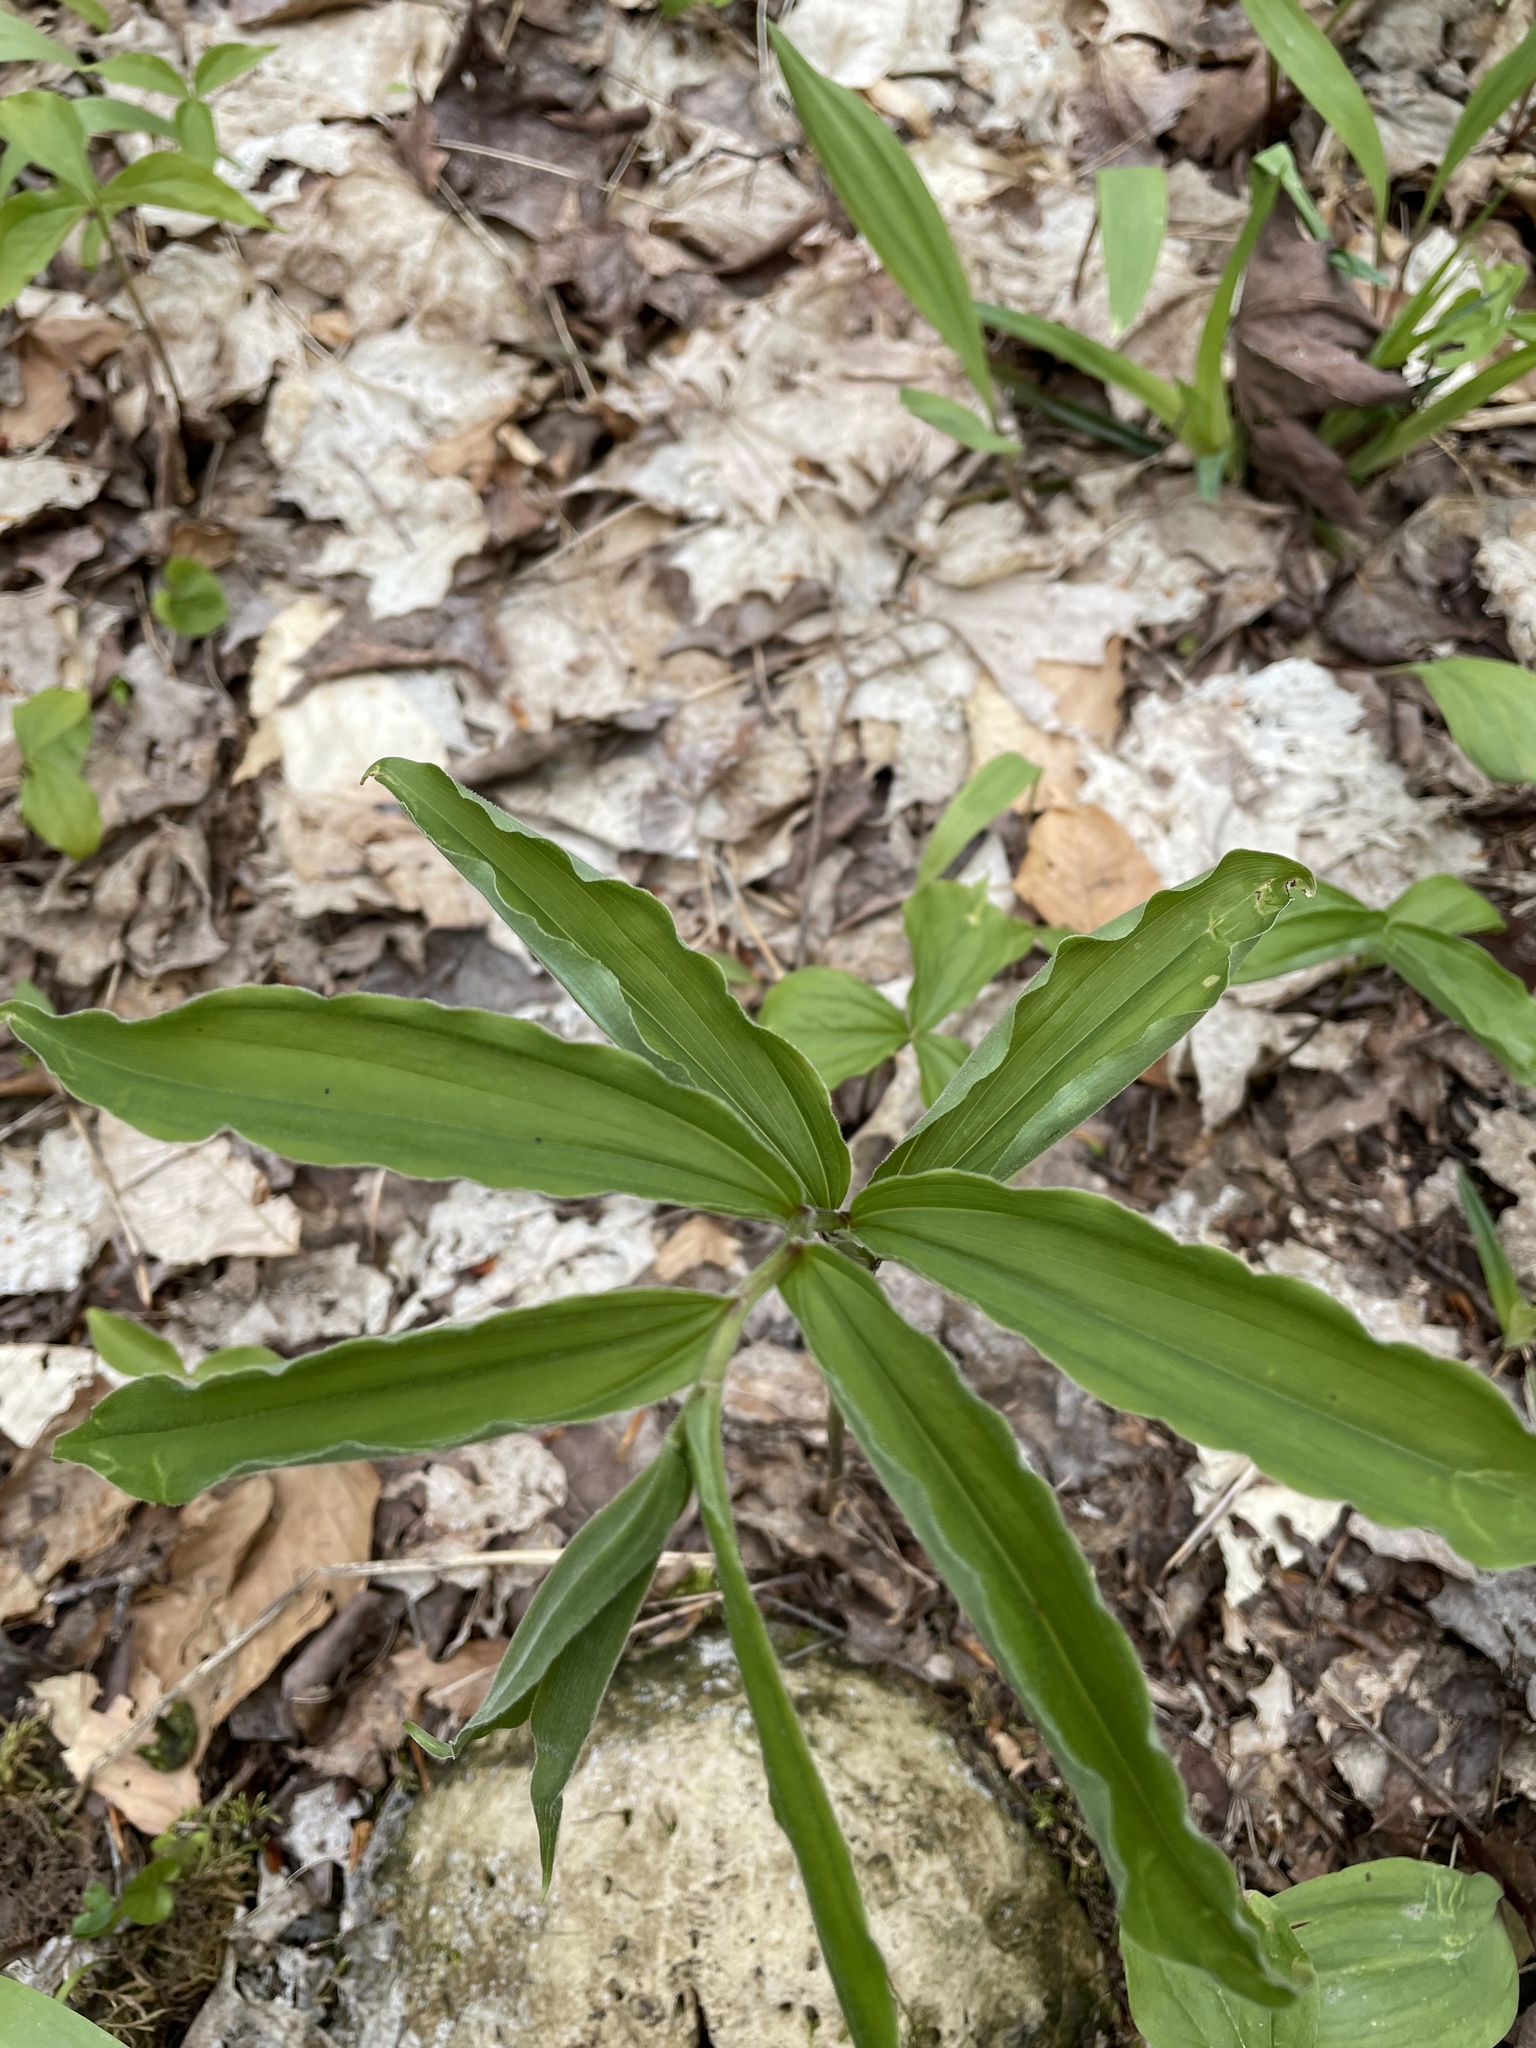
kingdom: Plantae
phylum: Tracheophyta
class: Liliopsida
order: Asparagales
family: Asparagaceae
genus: Maianthemum
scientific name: Maianthemum racemosum
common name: False spikenard
